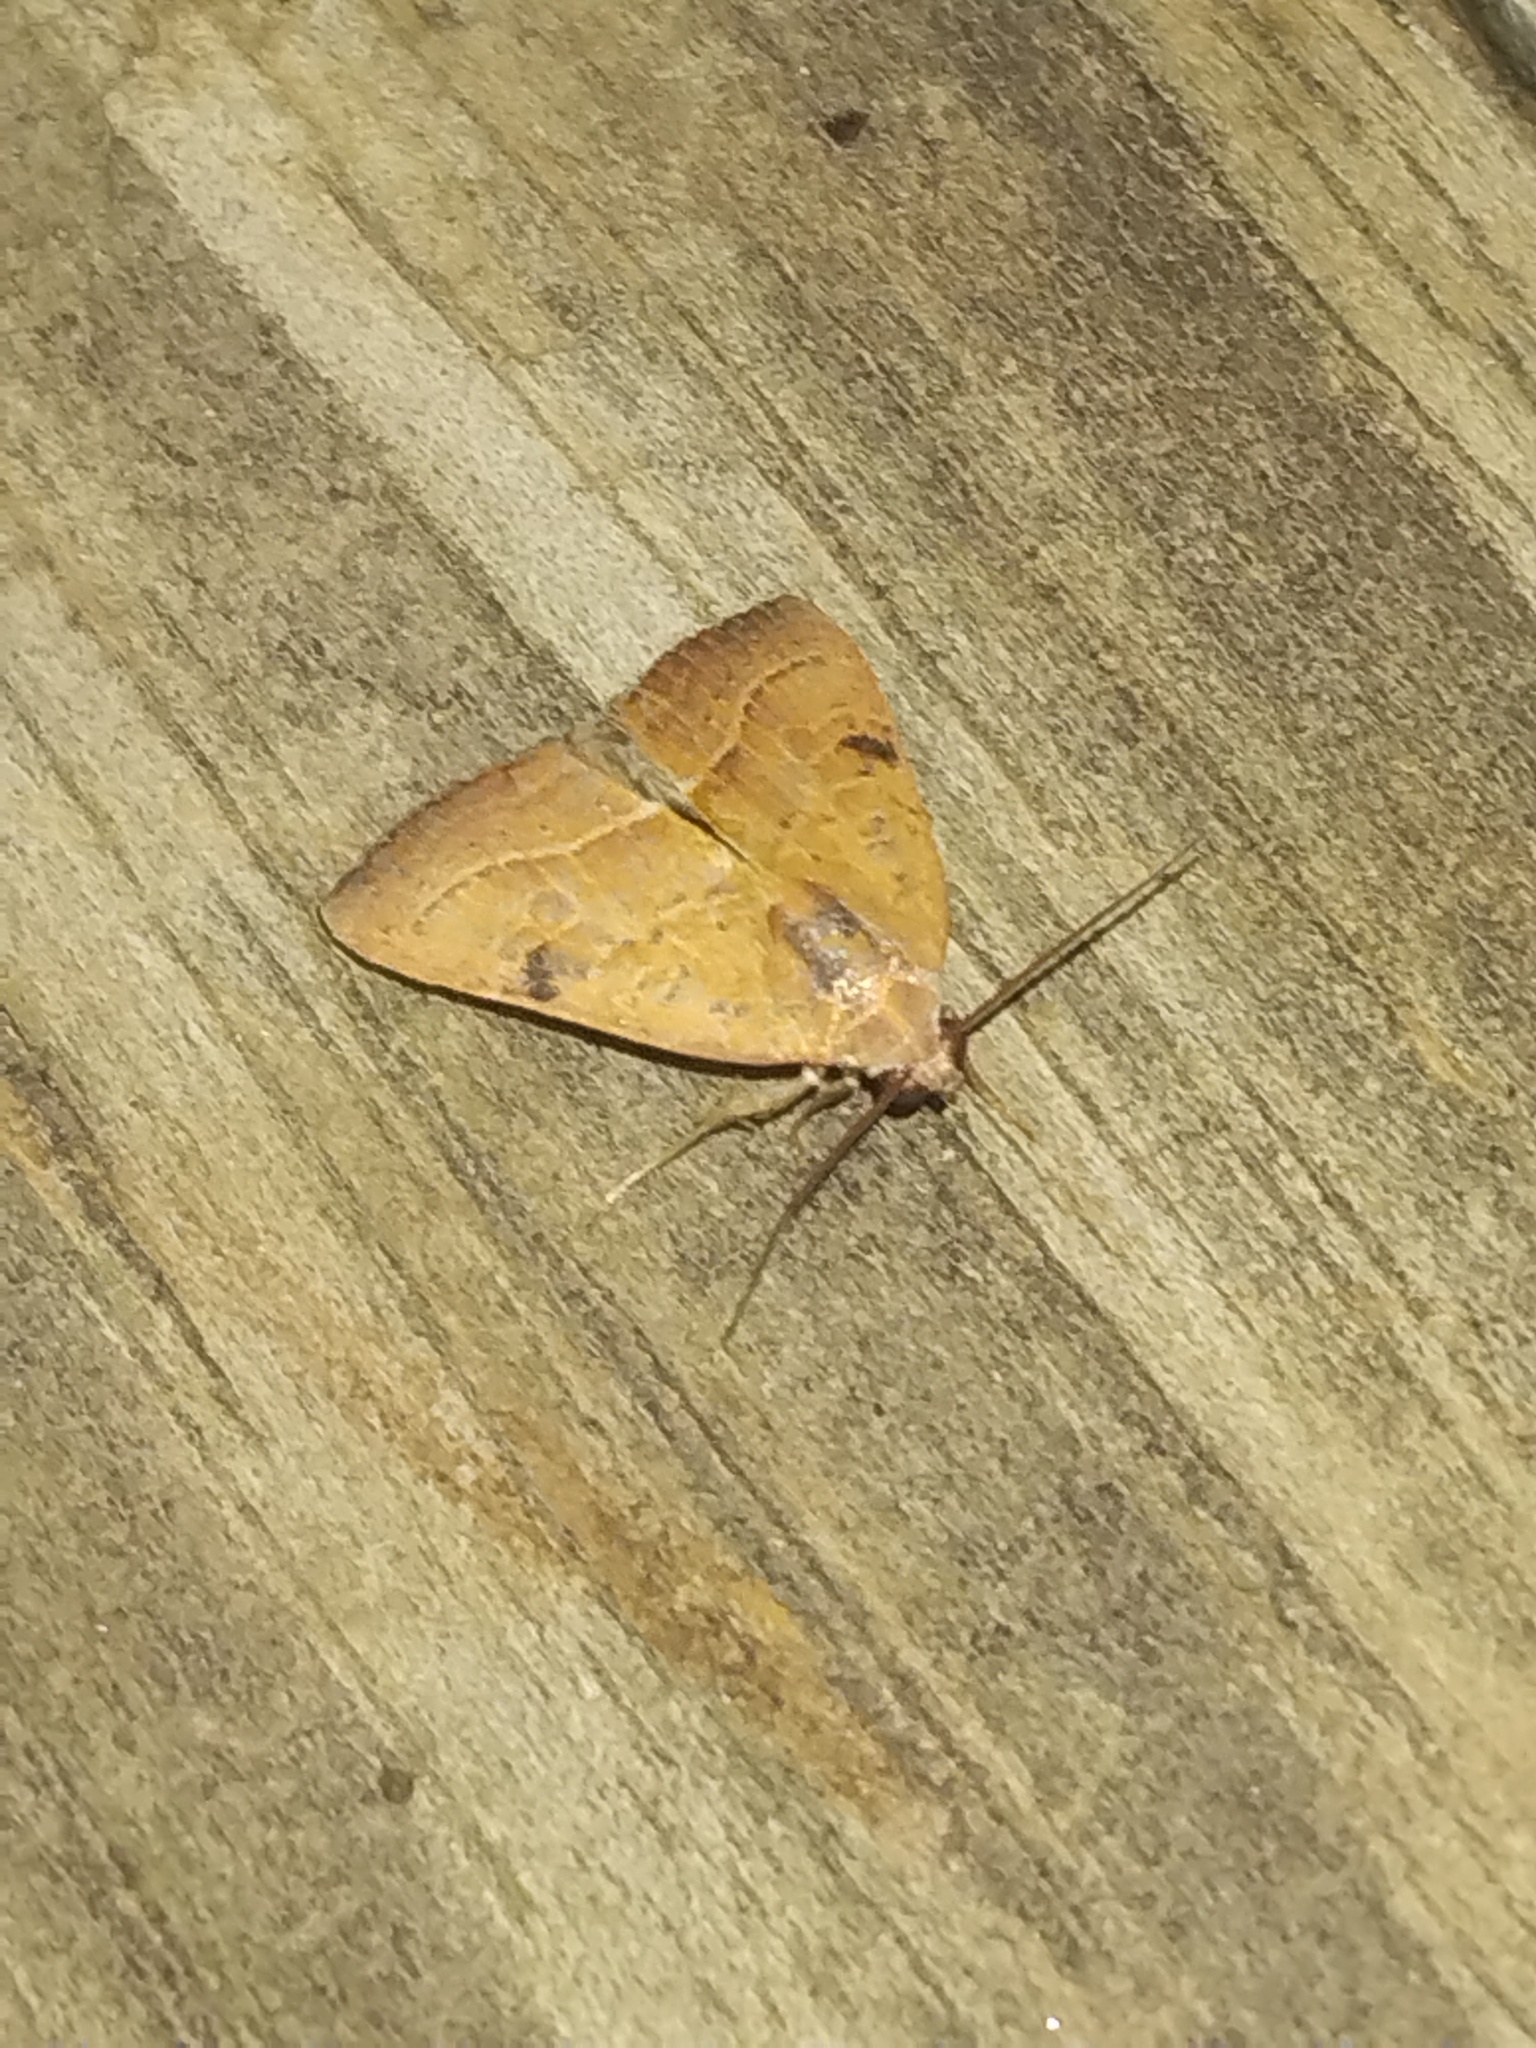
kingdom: Animalia
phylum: Arthropoda
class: Insecta
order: Lepidoptera
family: Noctuidae
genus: Galgula
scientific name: Galgula partita
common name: Wedgeling
